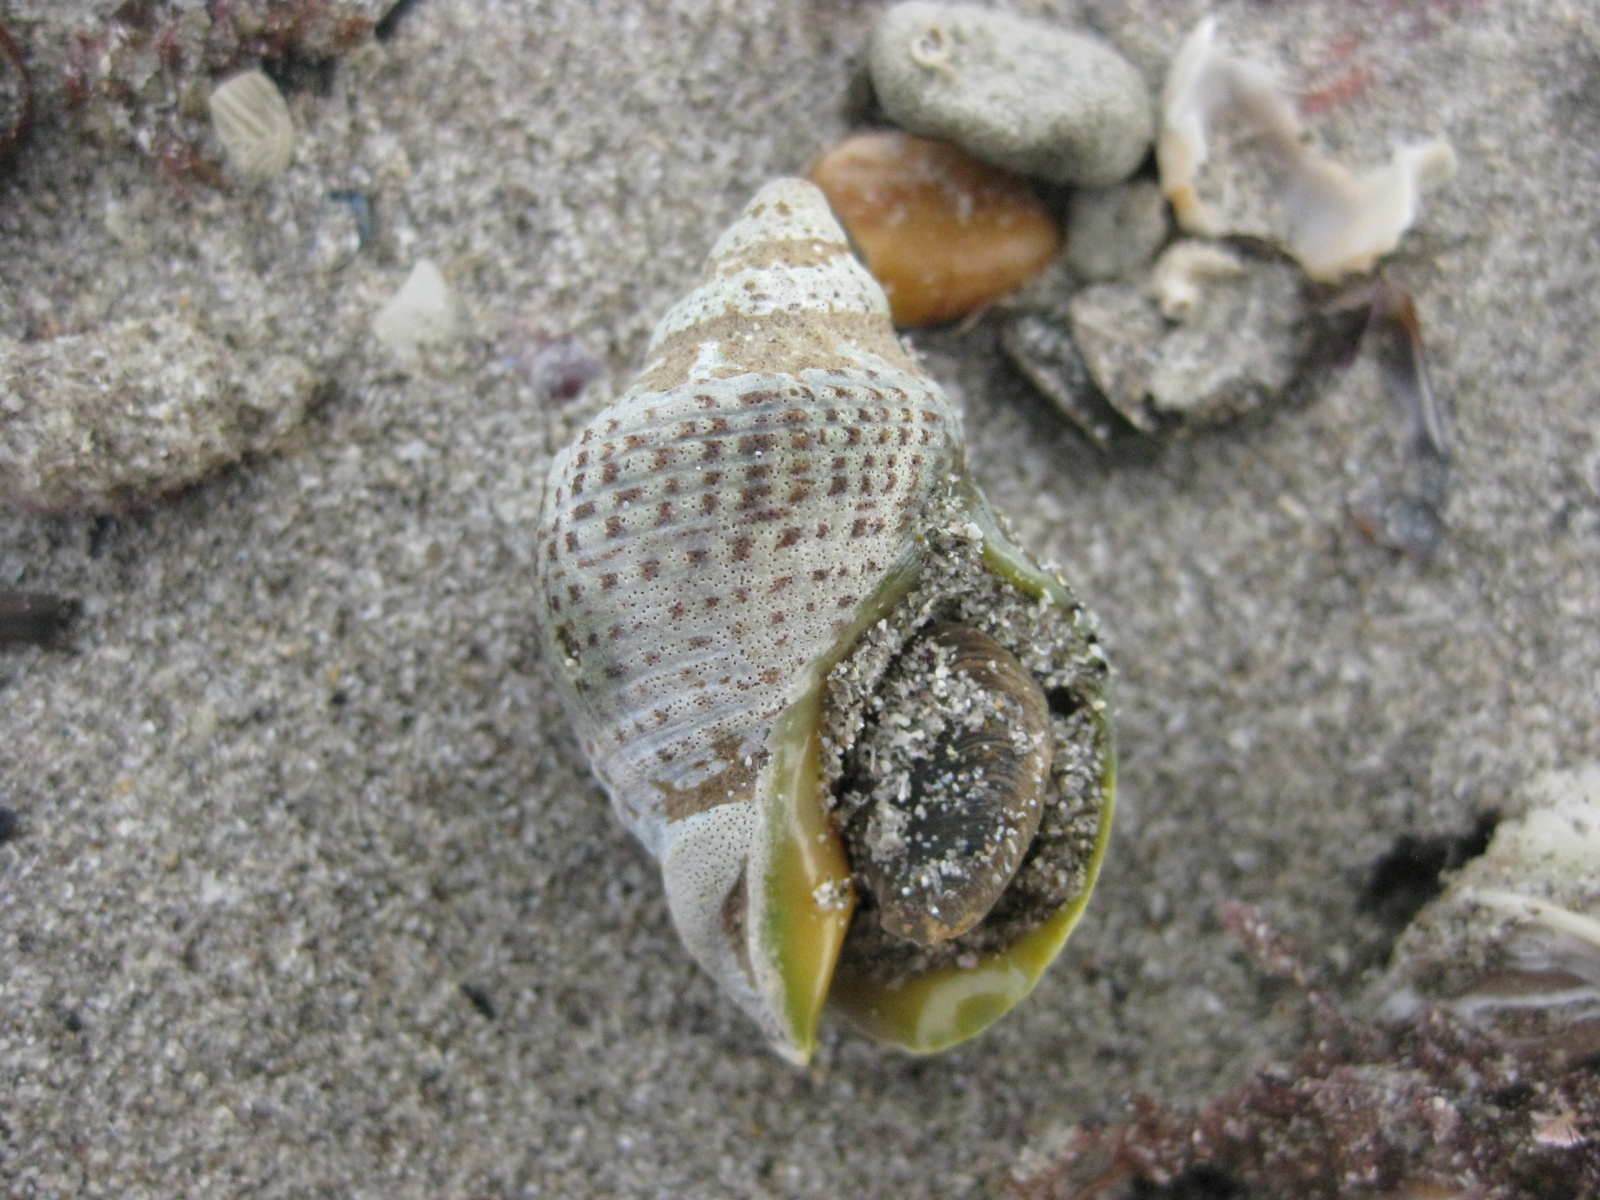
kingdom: Animalia
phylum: Mollusca
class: Gastropoda
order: Neogastropoda
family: Cominellidae
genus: Cominella
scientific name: Cominella adspersa
